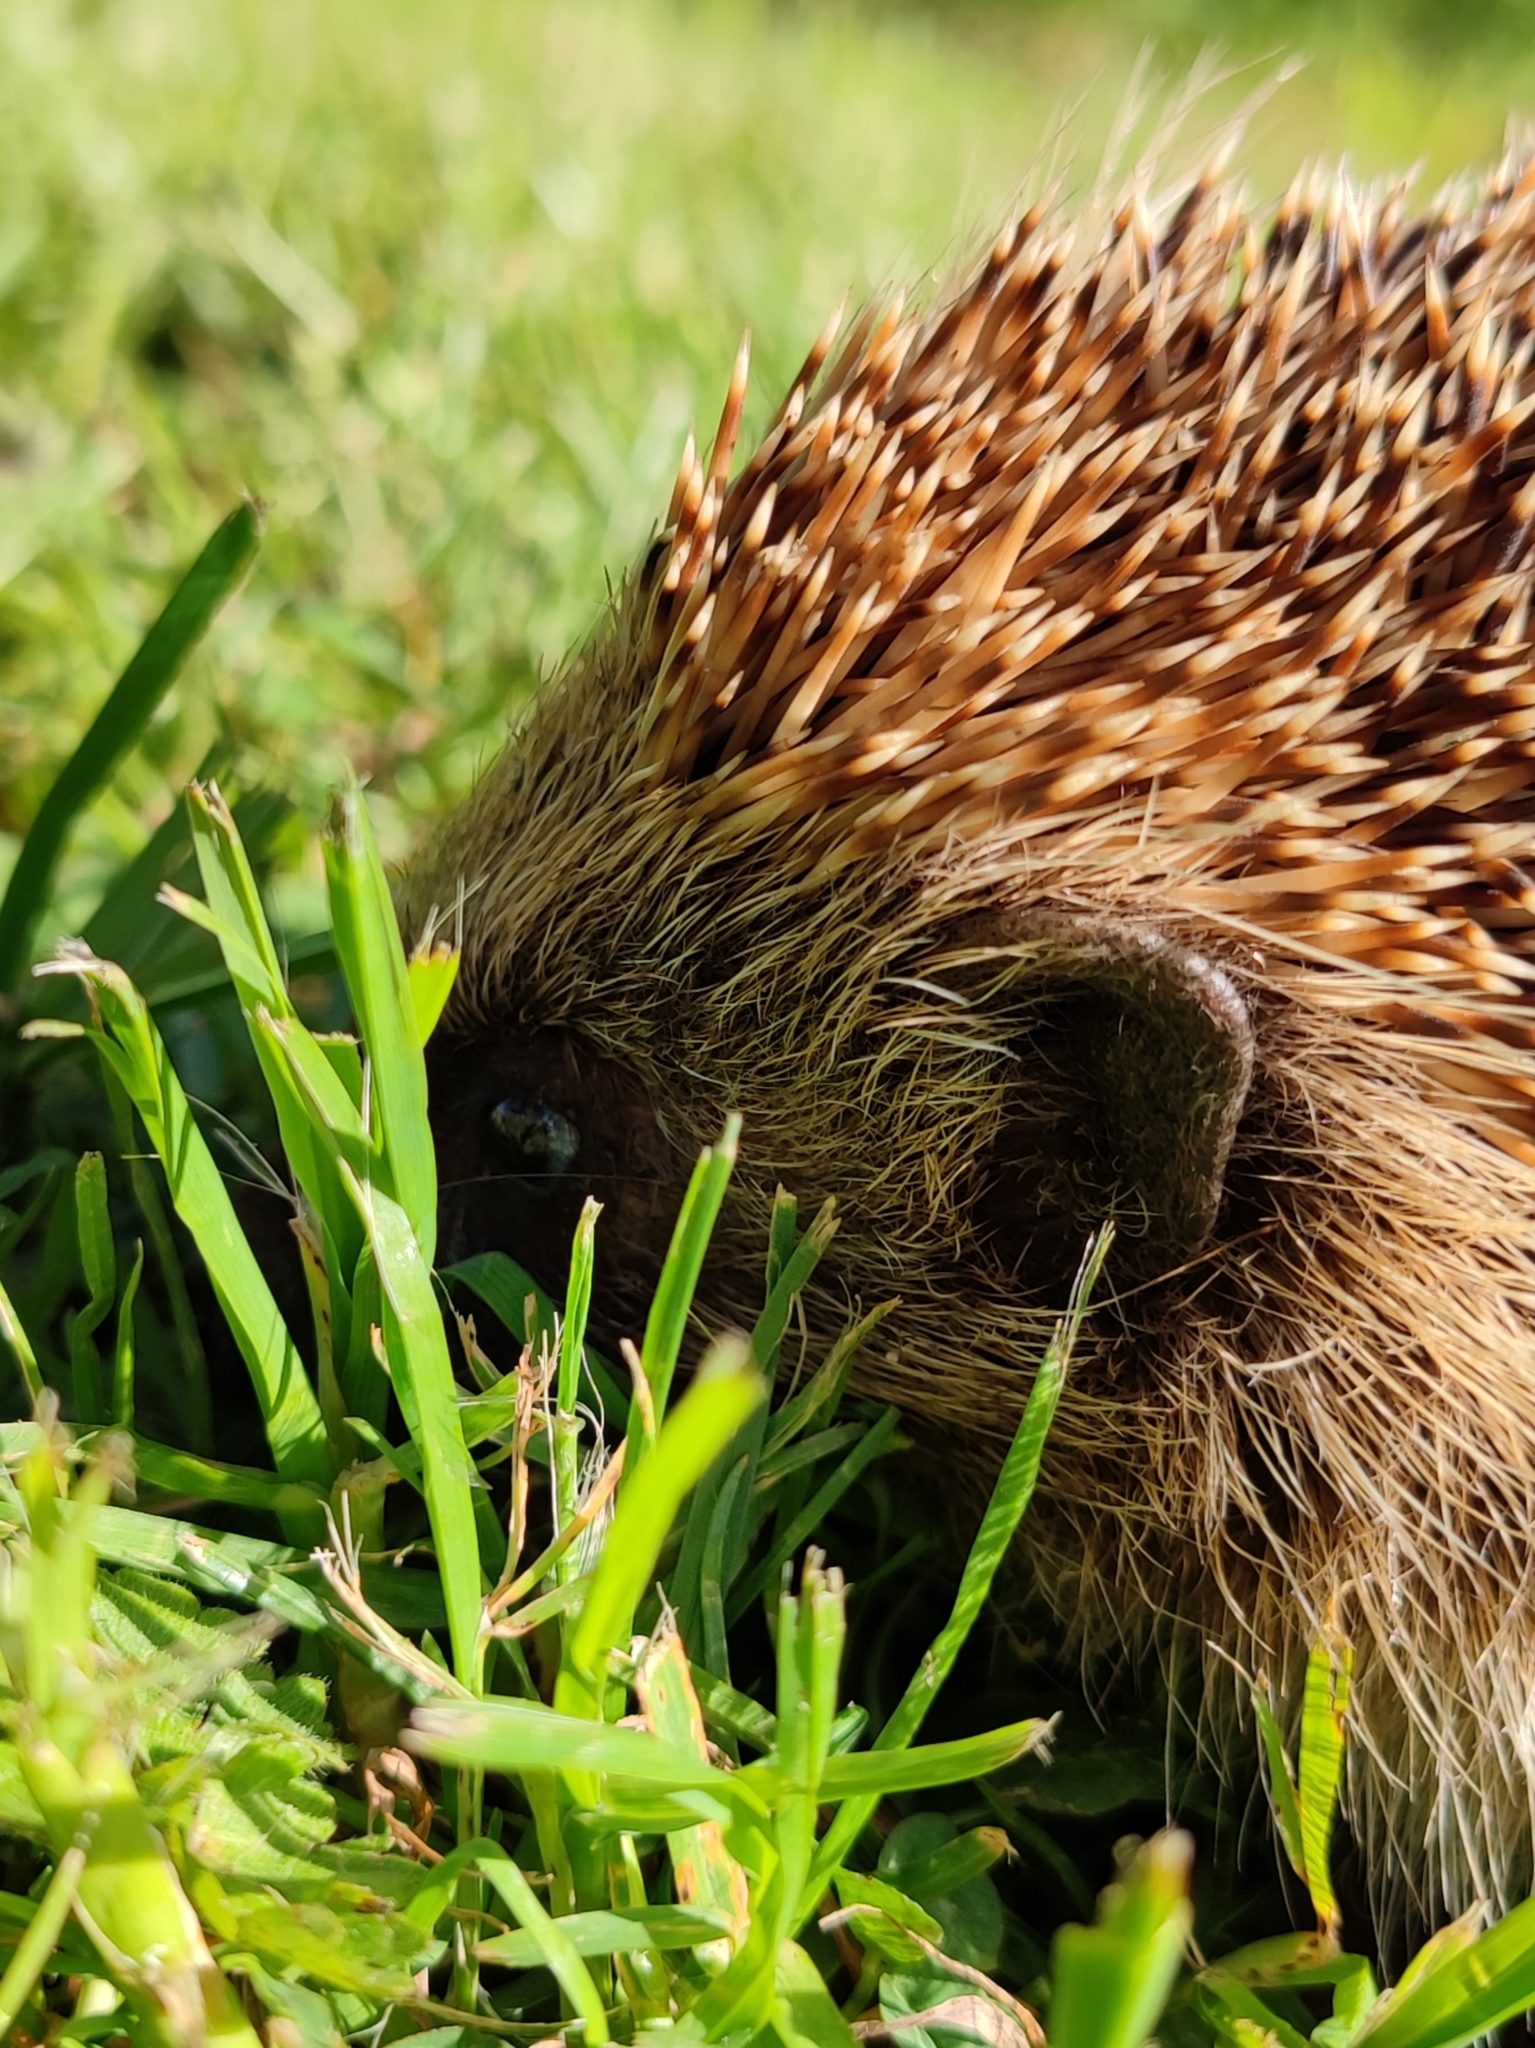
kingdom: Animalia
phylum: Chordata
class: Mammalia
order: Erinaceomorpha
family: Erinaceidae
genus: Erinaceus
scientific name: Erinaceus europaeus
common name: West european hedgehog
